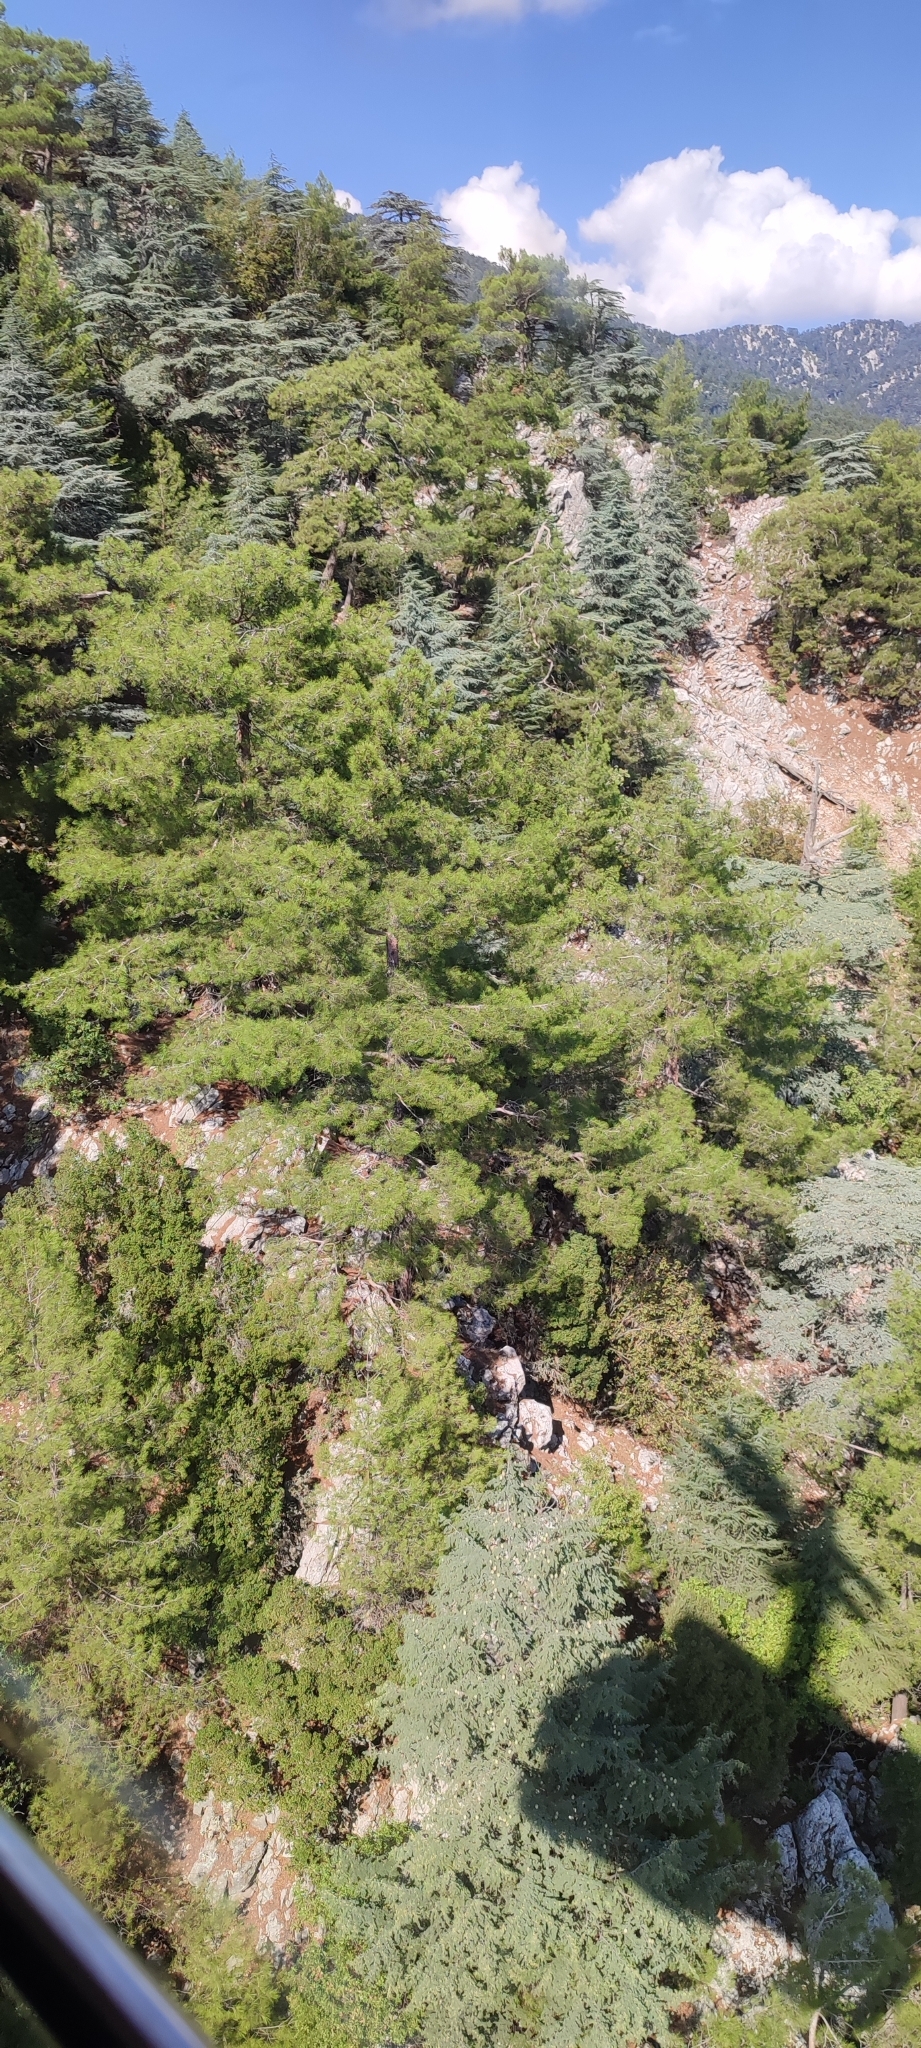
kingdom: Plantae
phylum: Tracheophyta
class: Pinopsida
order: Pinales
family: Pinaceae
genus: Pinus
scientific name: Pinus brutia
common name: Turkish pine
